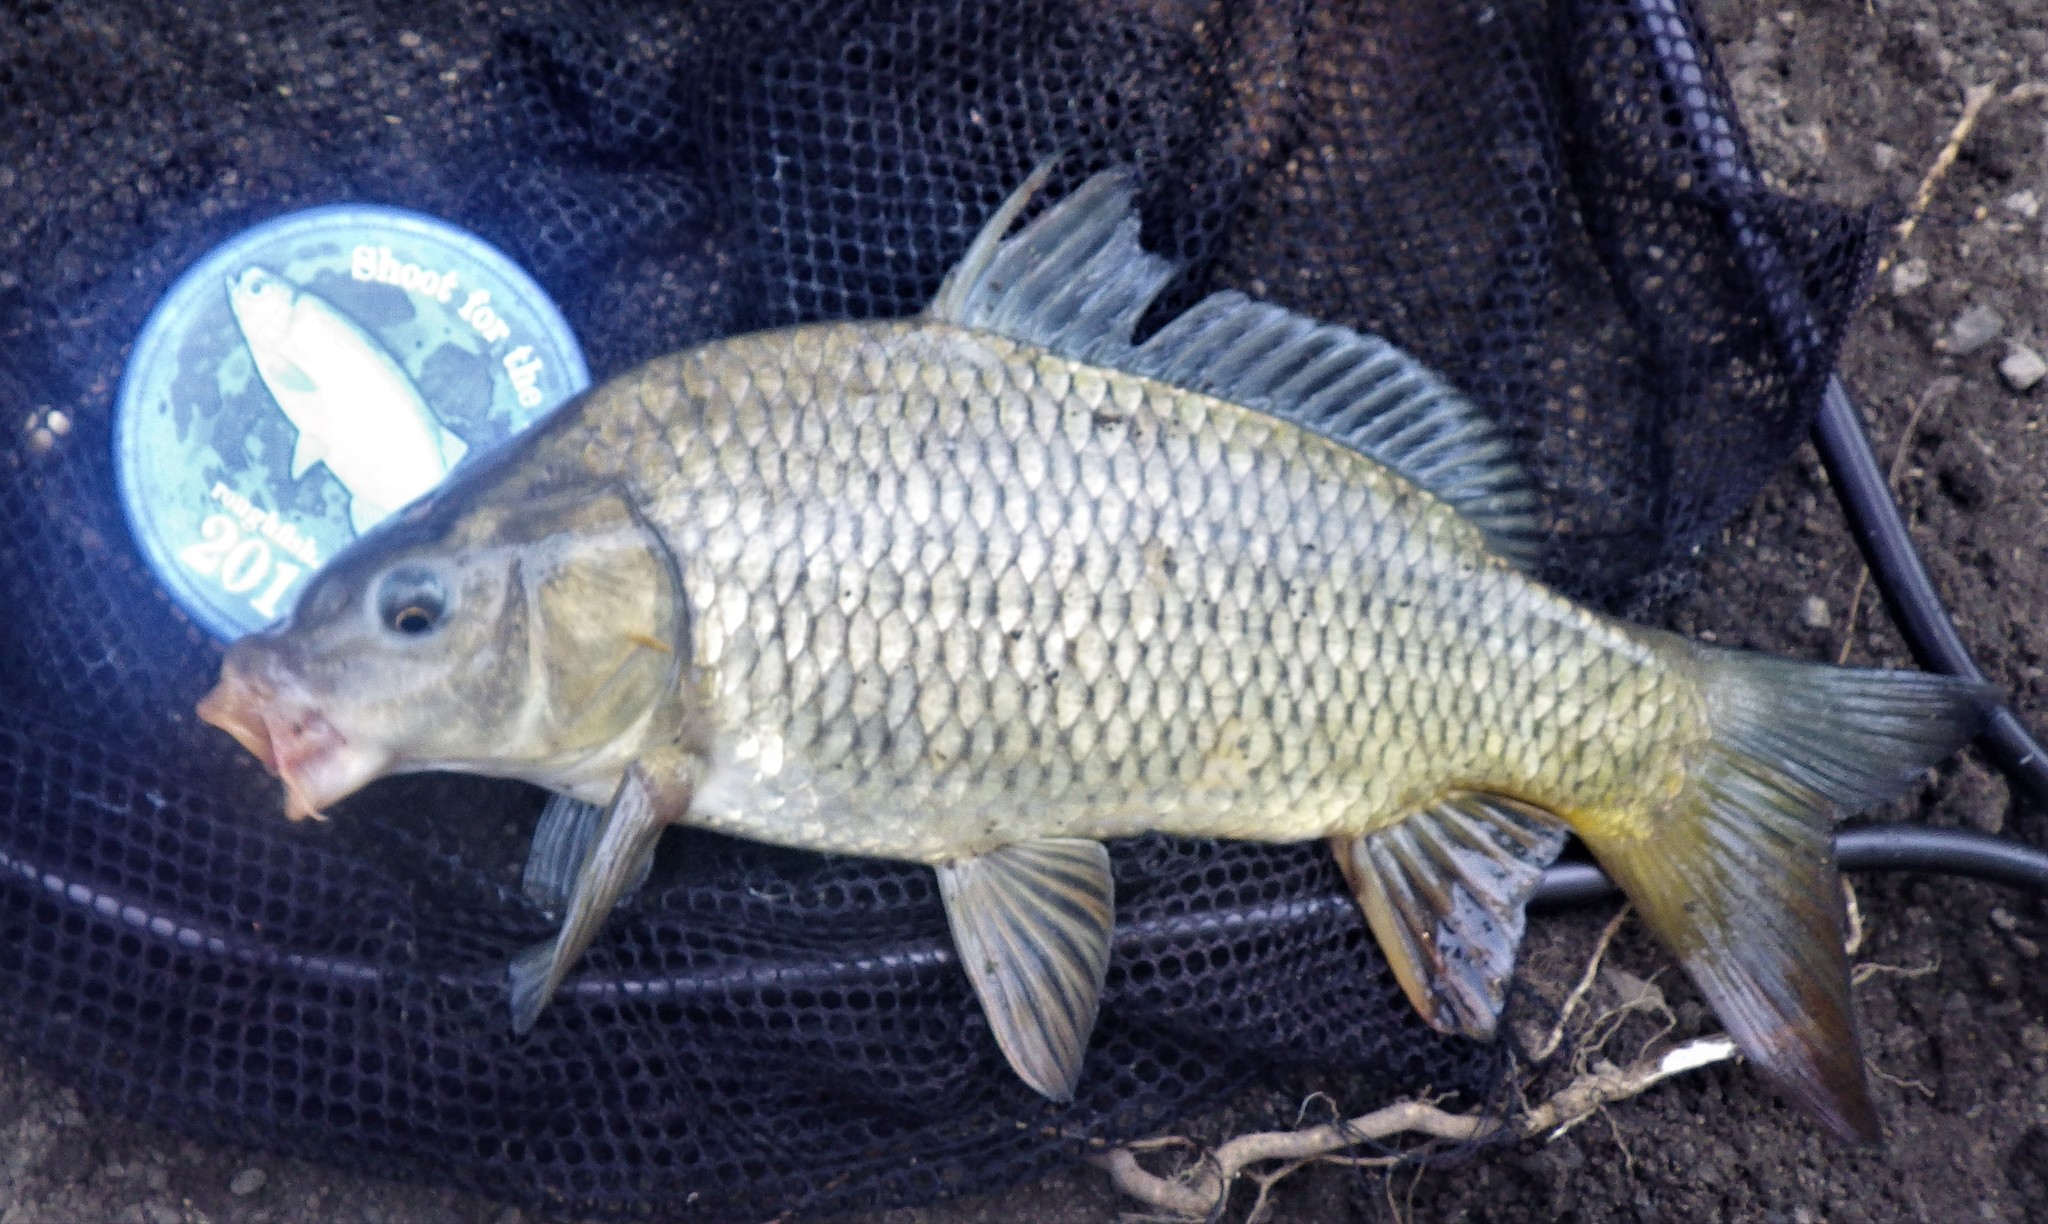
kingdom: Animalia
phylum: Chordata
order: Cypriniformes
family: Cyprinidae
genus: Cyprinus
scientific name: Cyprinus carpio
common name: Common carp
